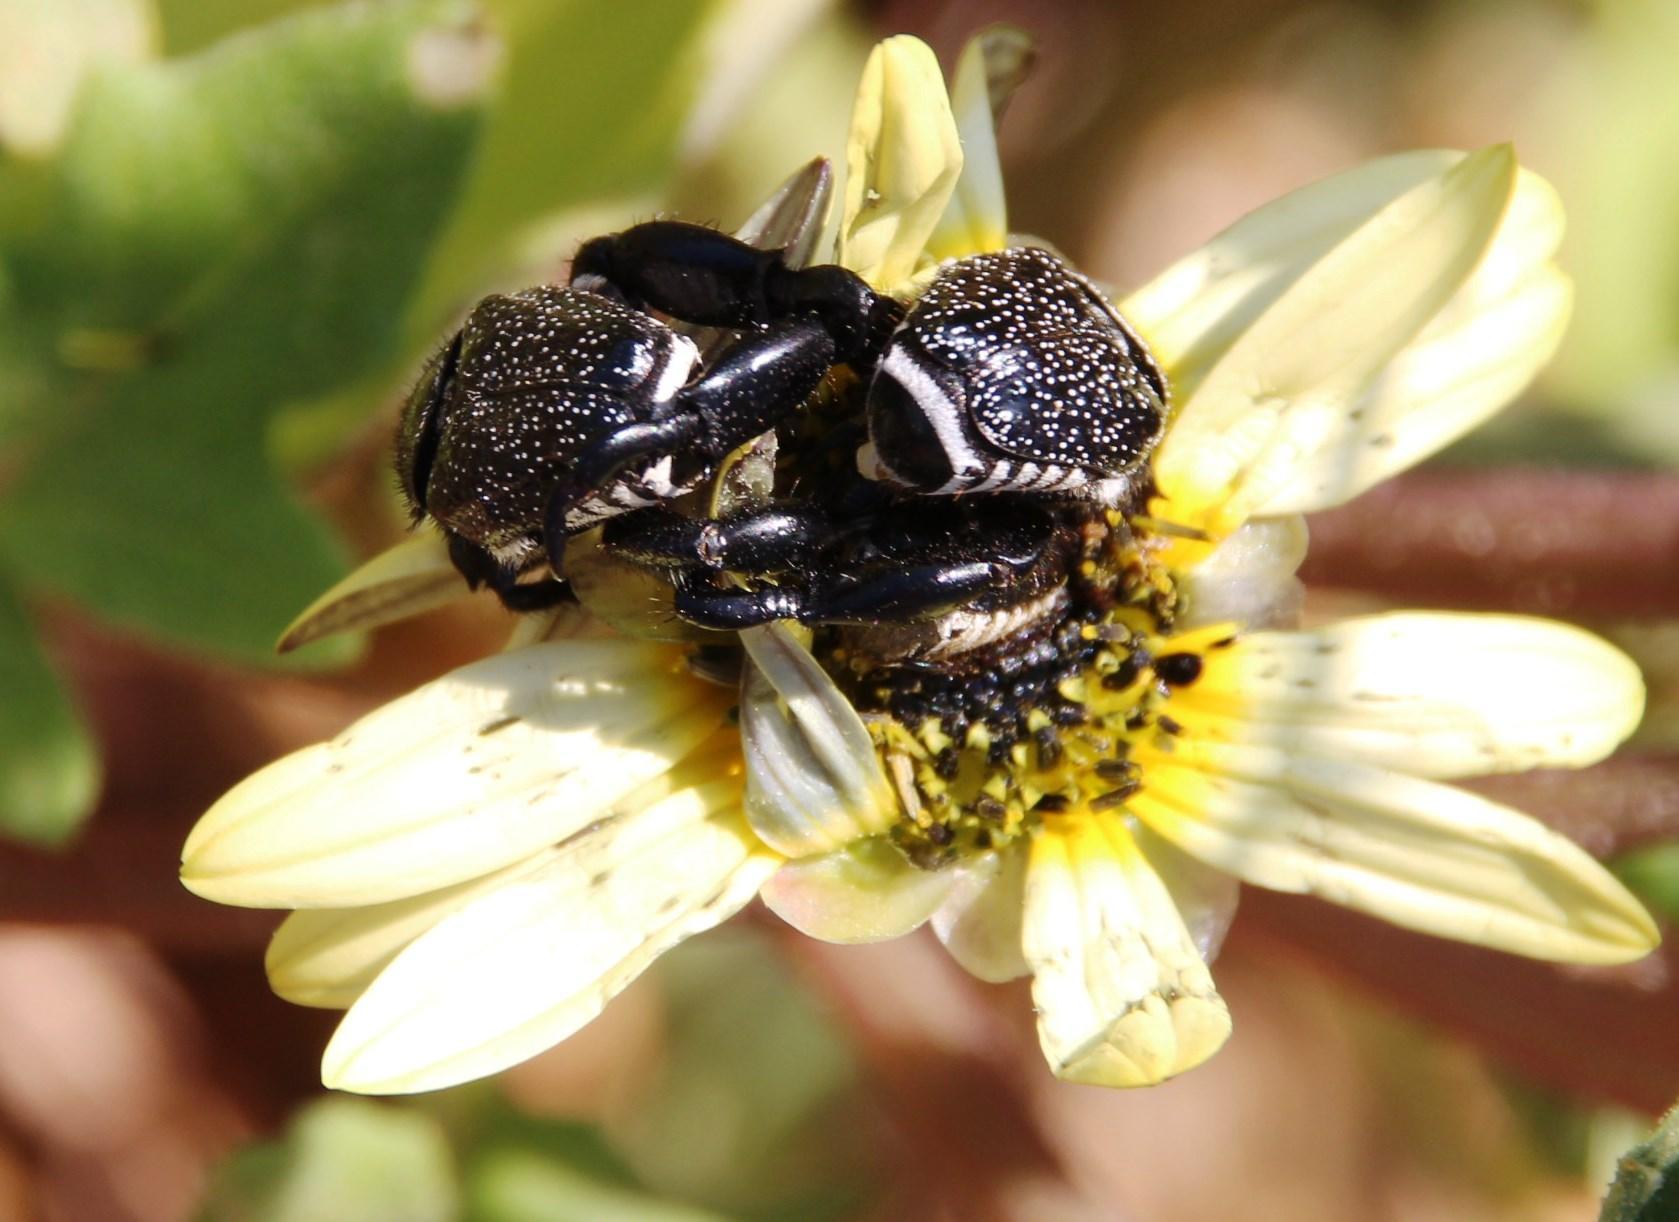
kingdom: Animalia
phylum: Arthropoda
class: Insecta
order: Coleoptera
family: Scarabaeidae
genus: Pachycnema
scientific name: Pachycnema calviniana
